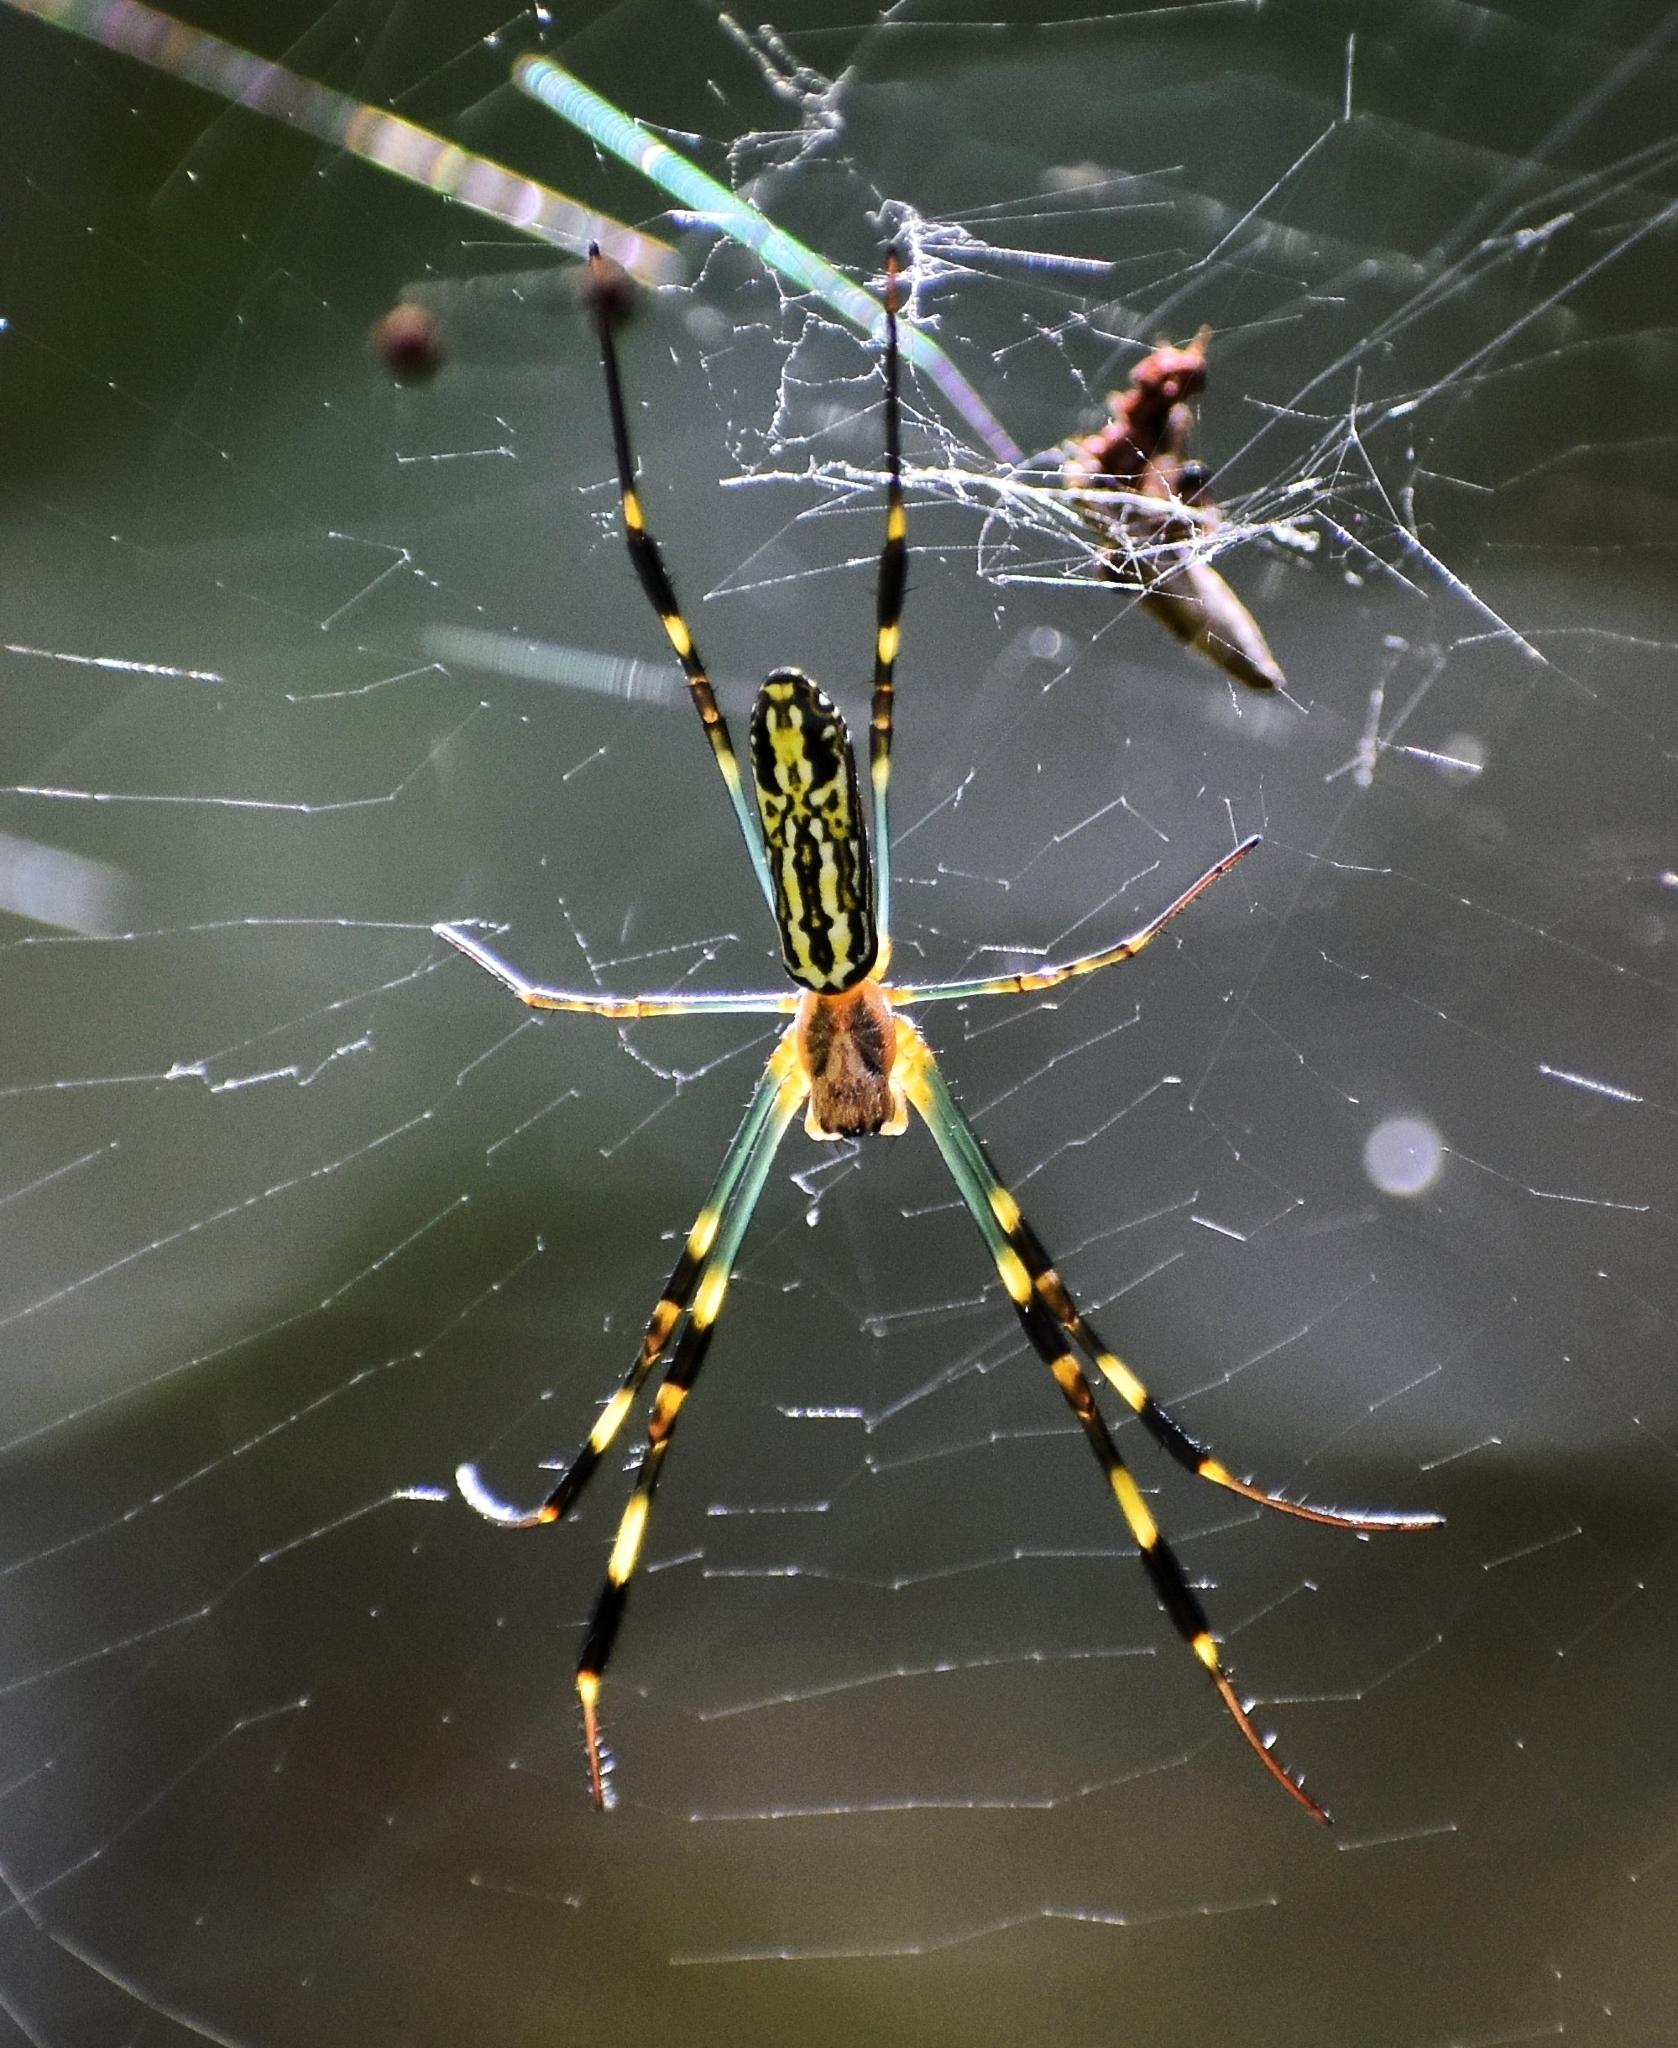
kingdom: Animalia
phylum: Arthropoda
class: Arachnida
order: Araneae
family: Araneidae
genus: Trichonephila
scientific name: Trichonephila clavata
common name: Jorō spider
